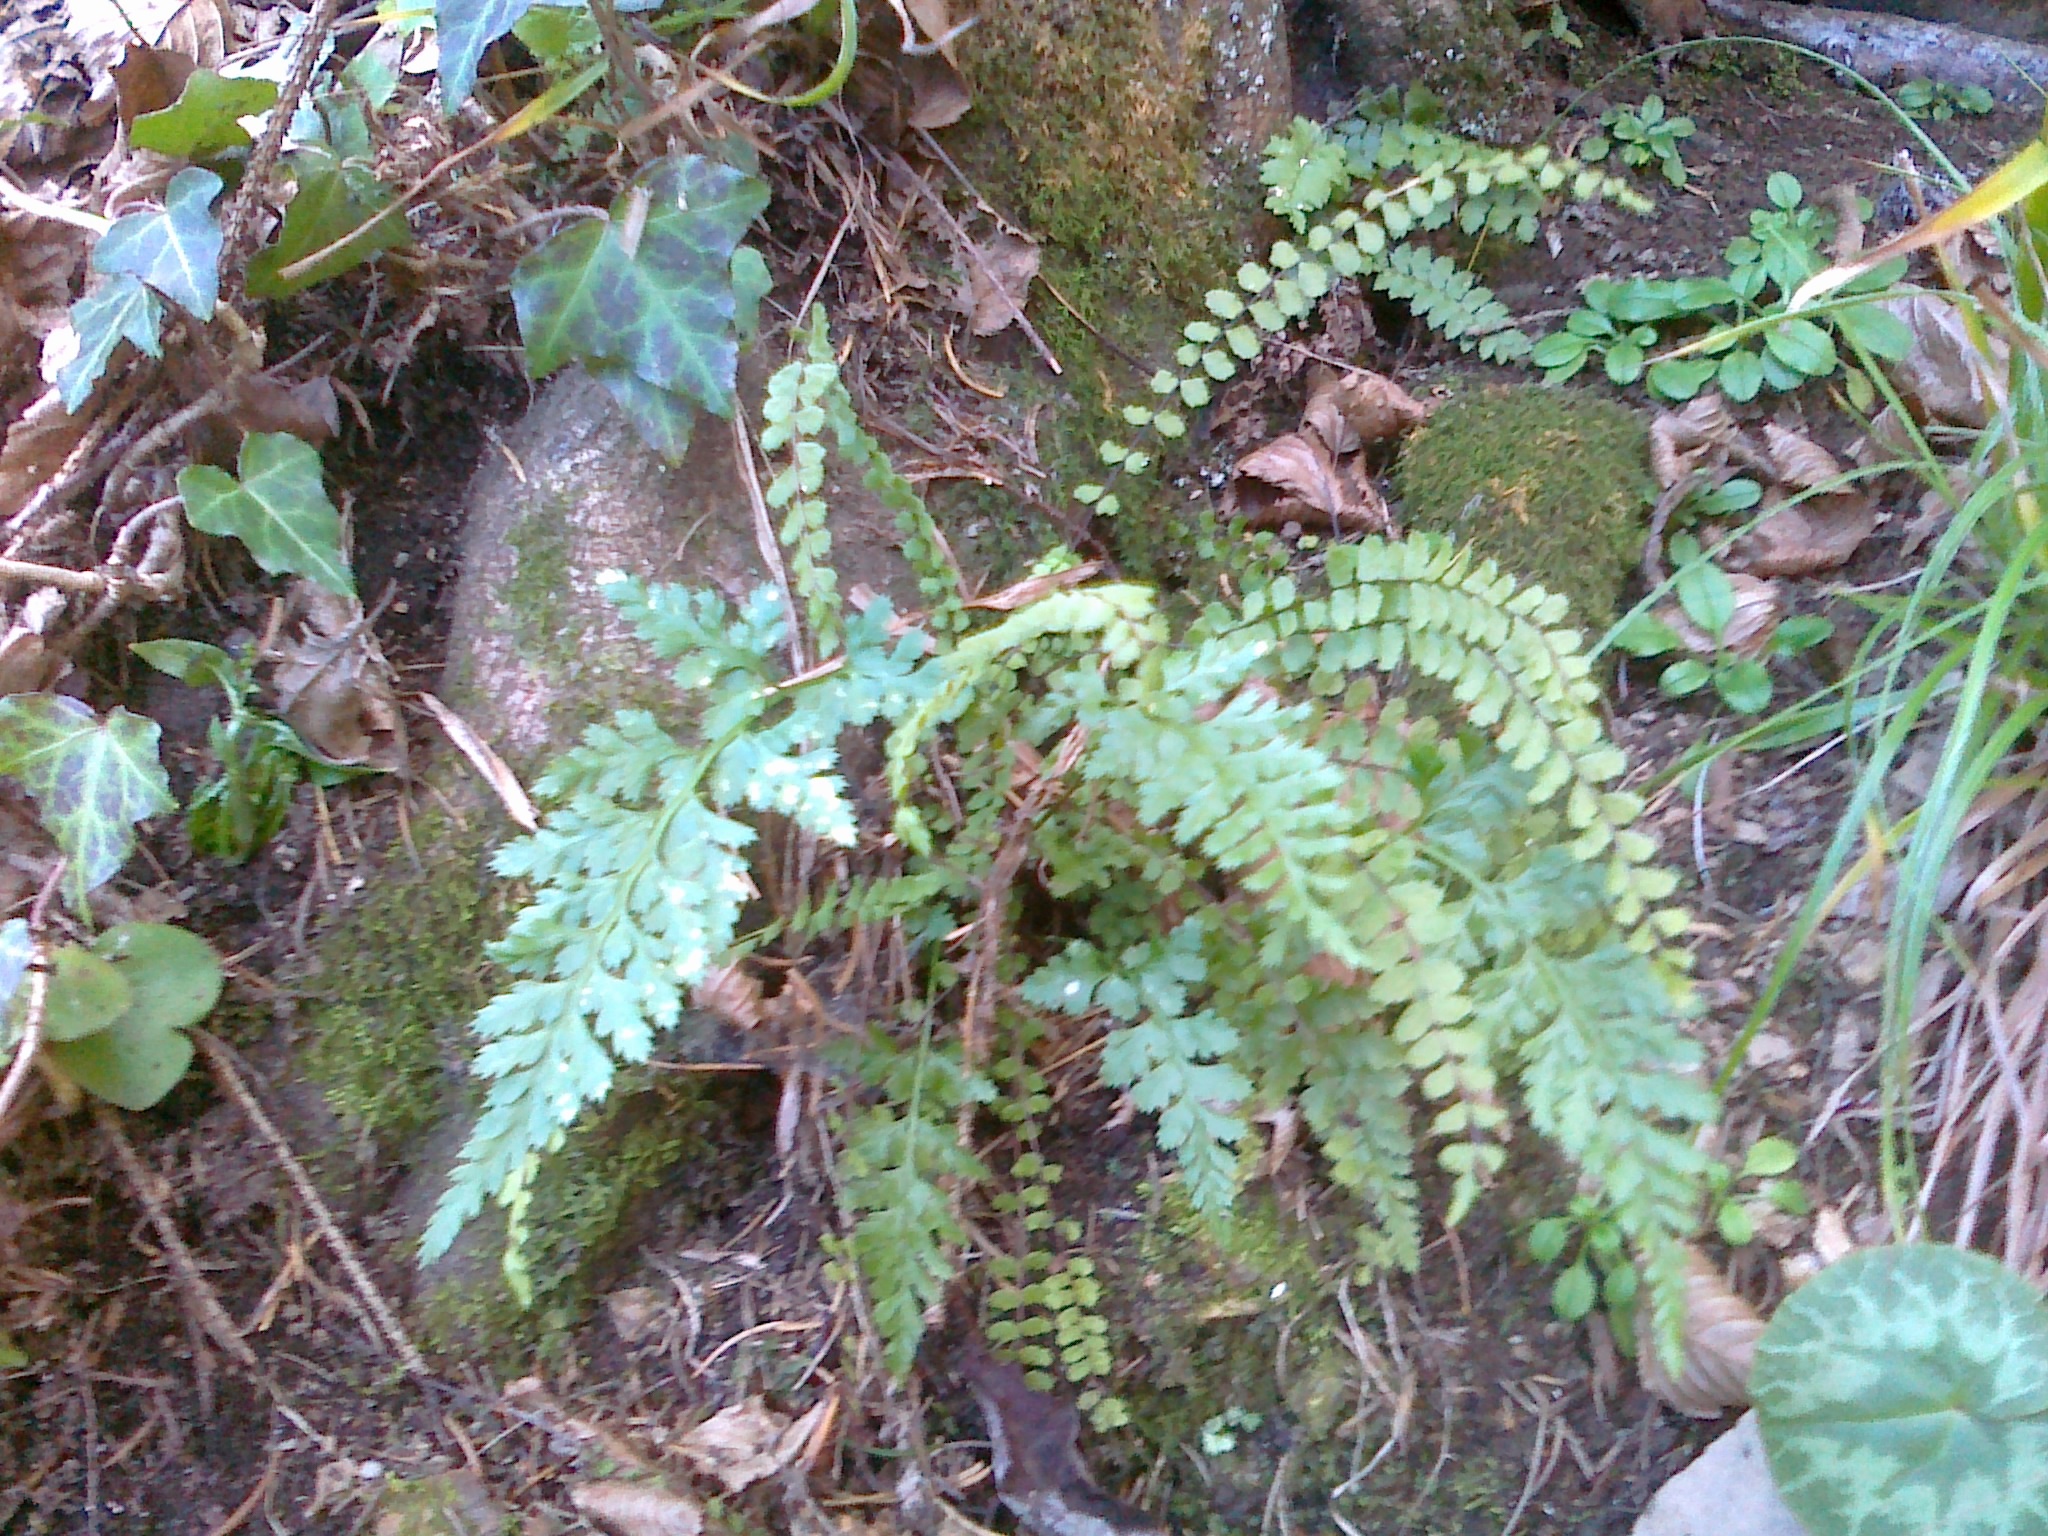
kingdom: Plantae
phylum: Tracheophyta
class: Polypodiopsida
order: Polypodiales
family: Aspleniaceae
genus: Asplenium
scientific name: Asplenium adiantum-nigrum
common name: Black spleenwort
